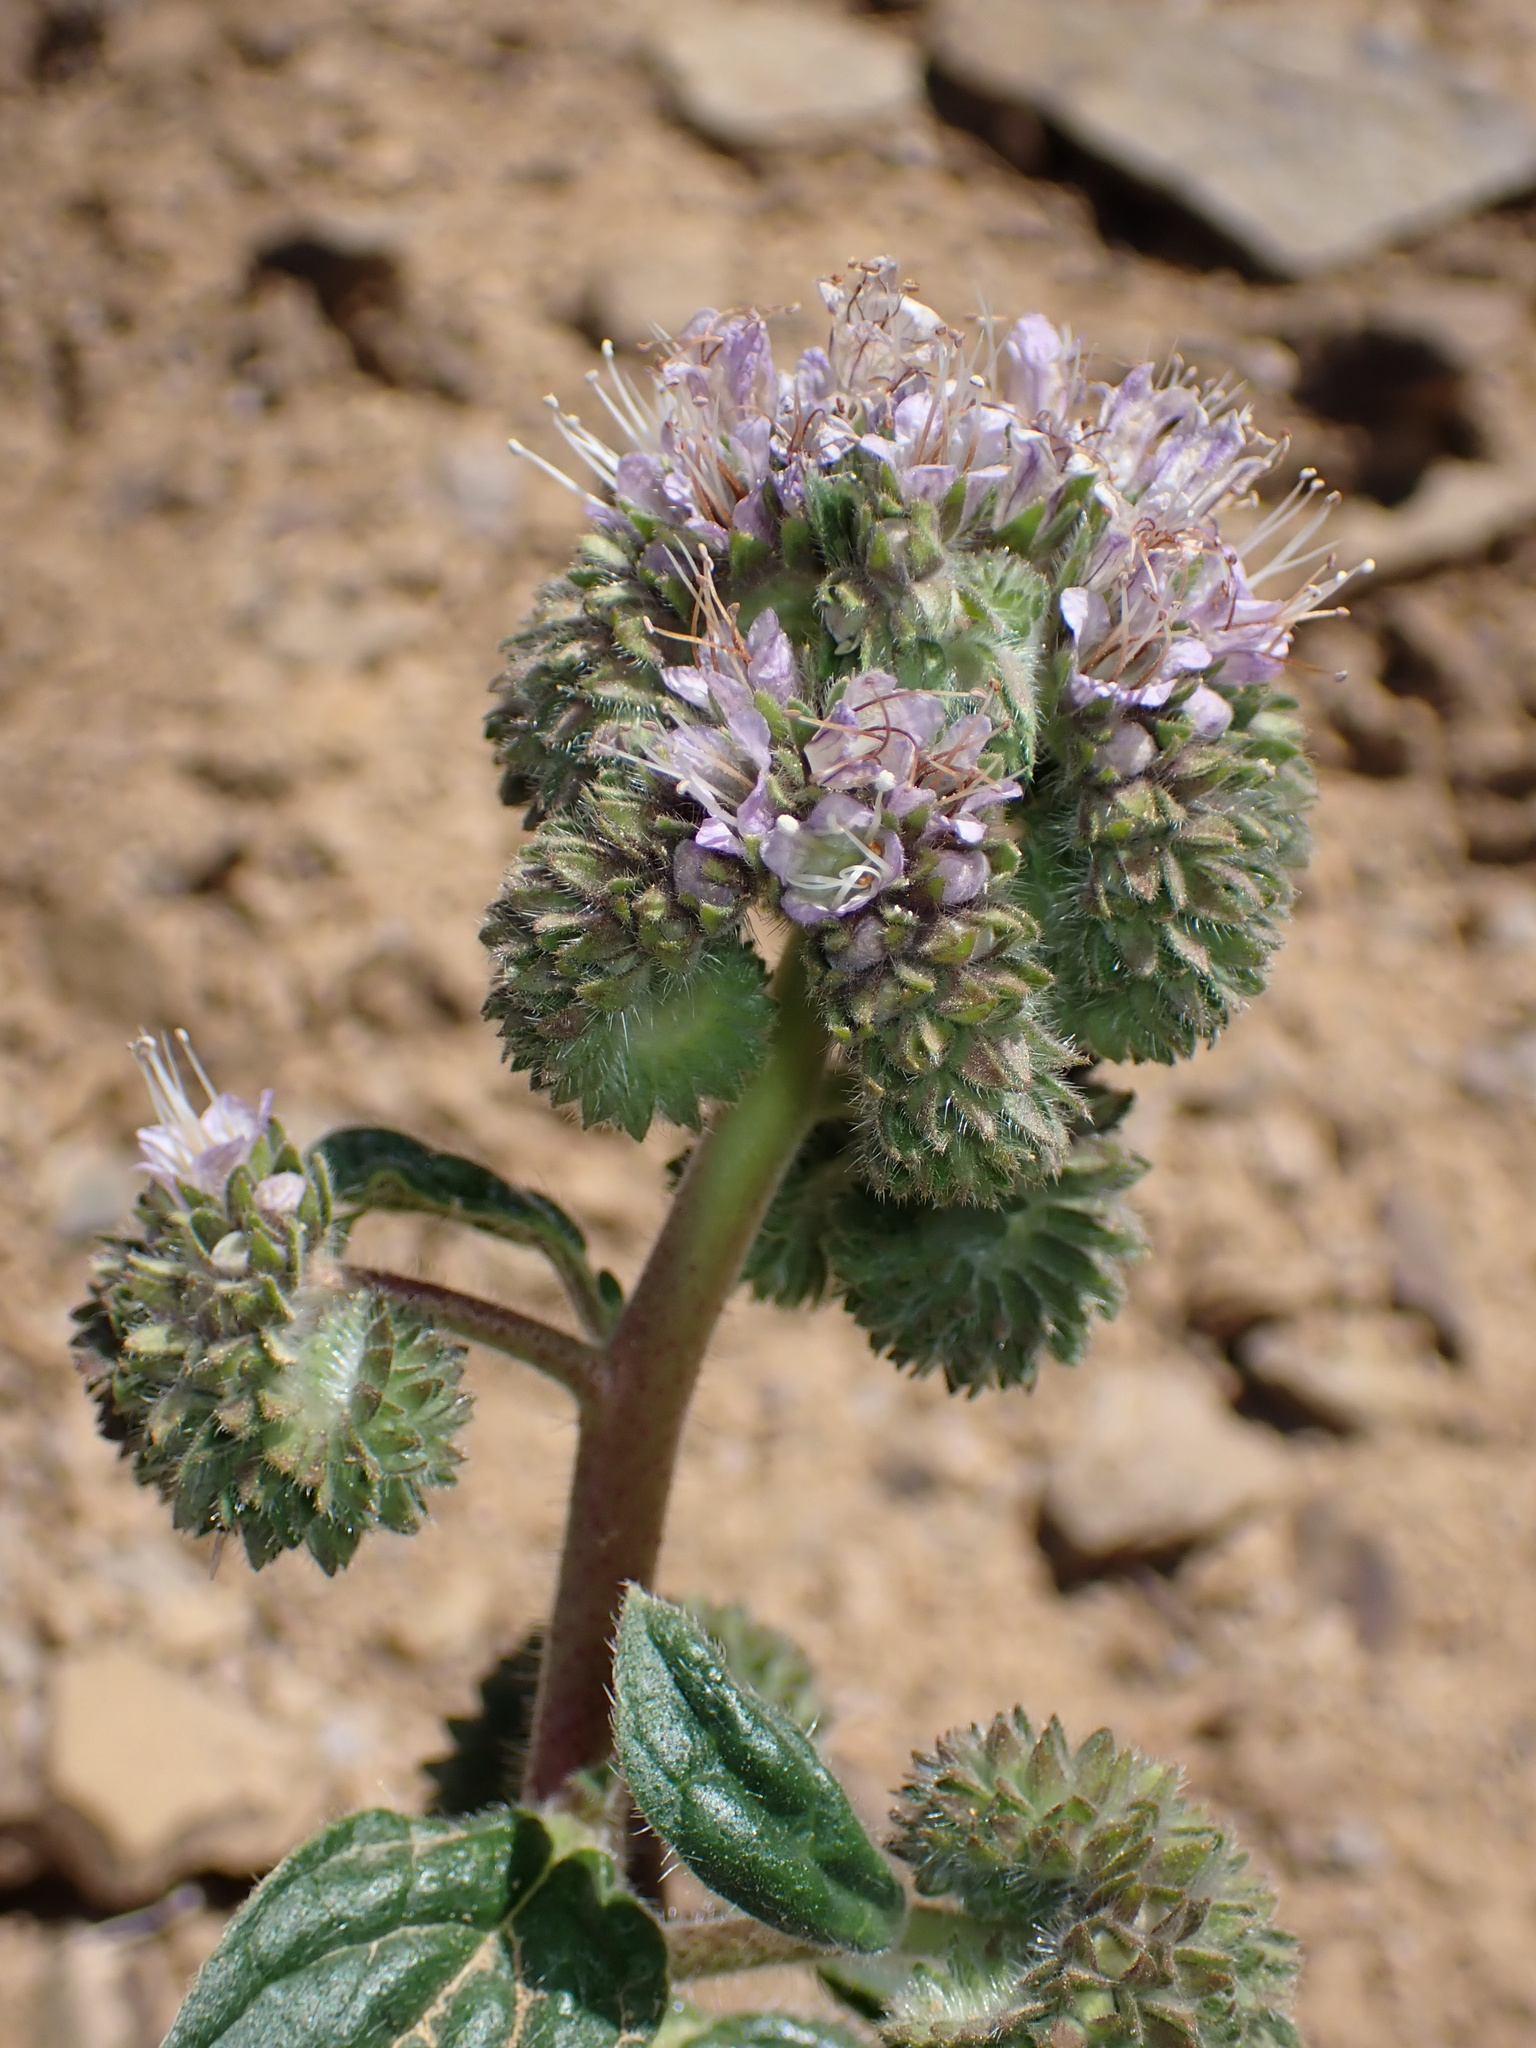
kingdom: Plantae
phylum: Tracheophyta
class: Magnoliopsida
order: Boraginales
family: Hydrophyllaceae
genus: Phacelia
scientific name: Phacelia californica
